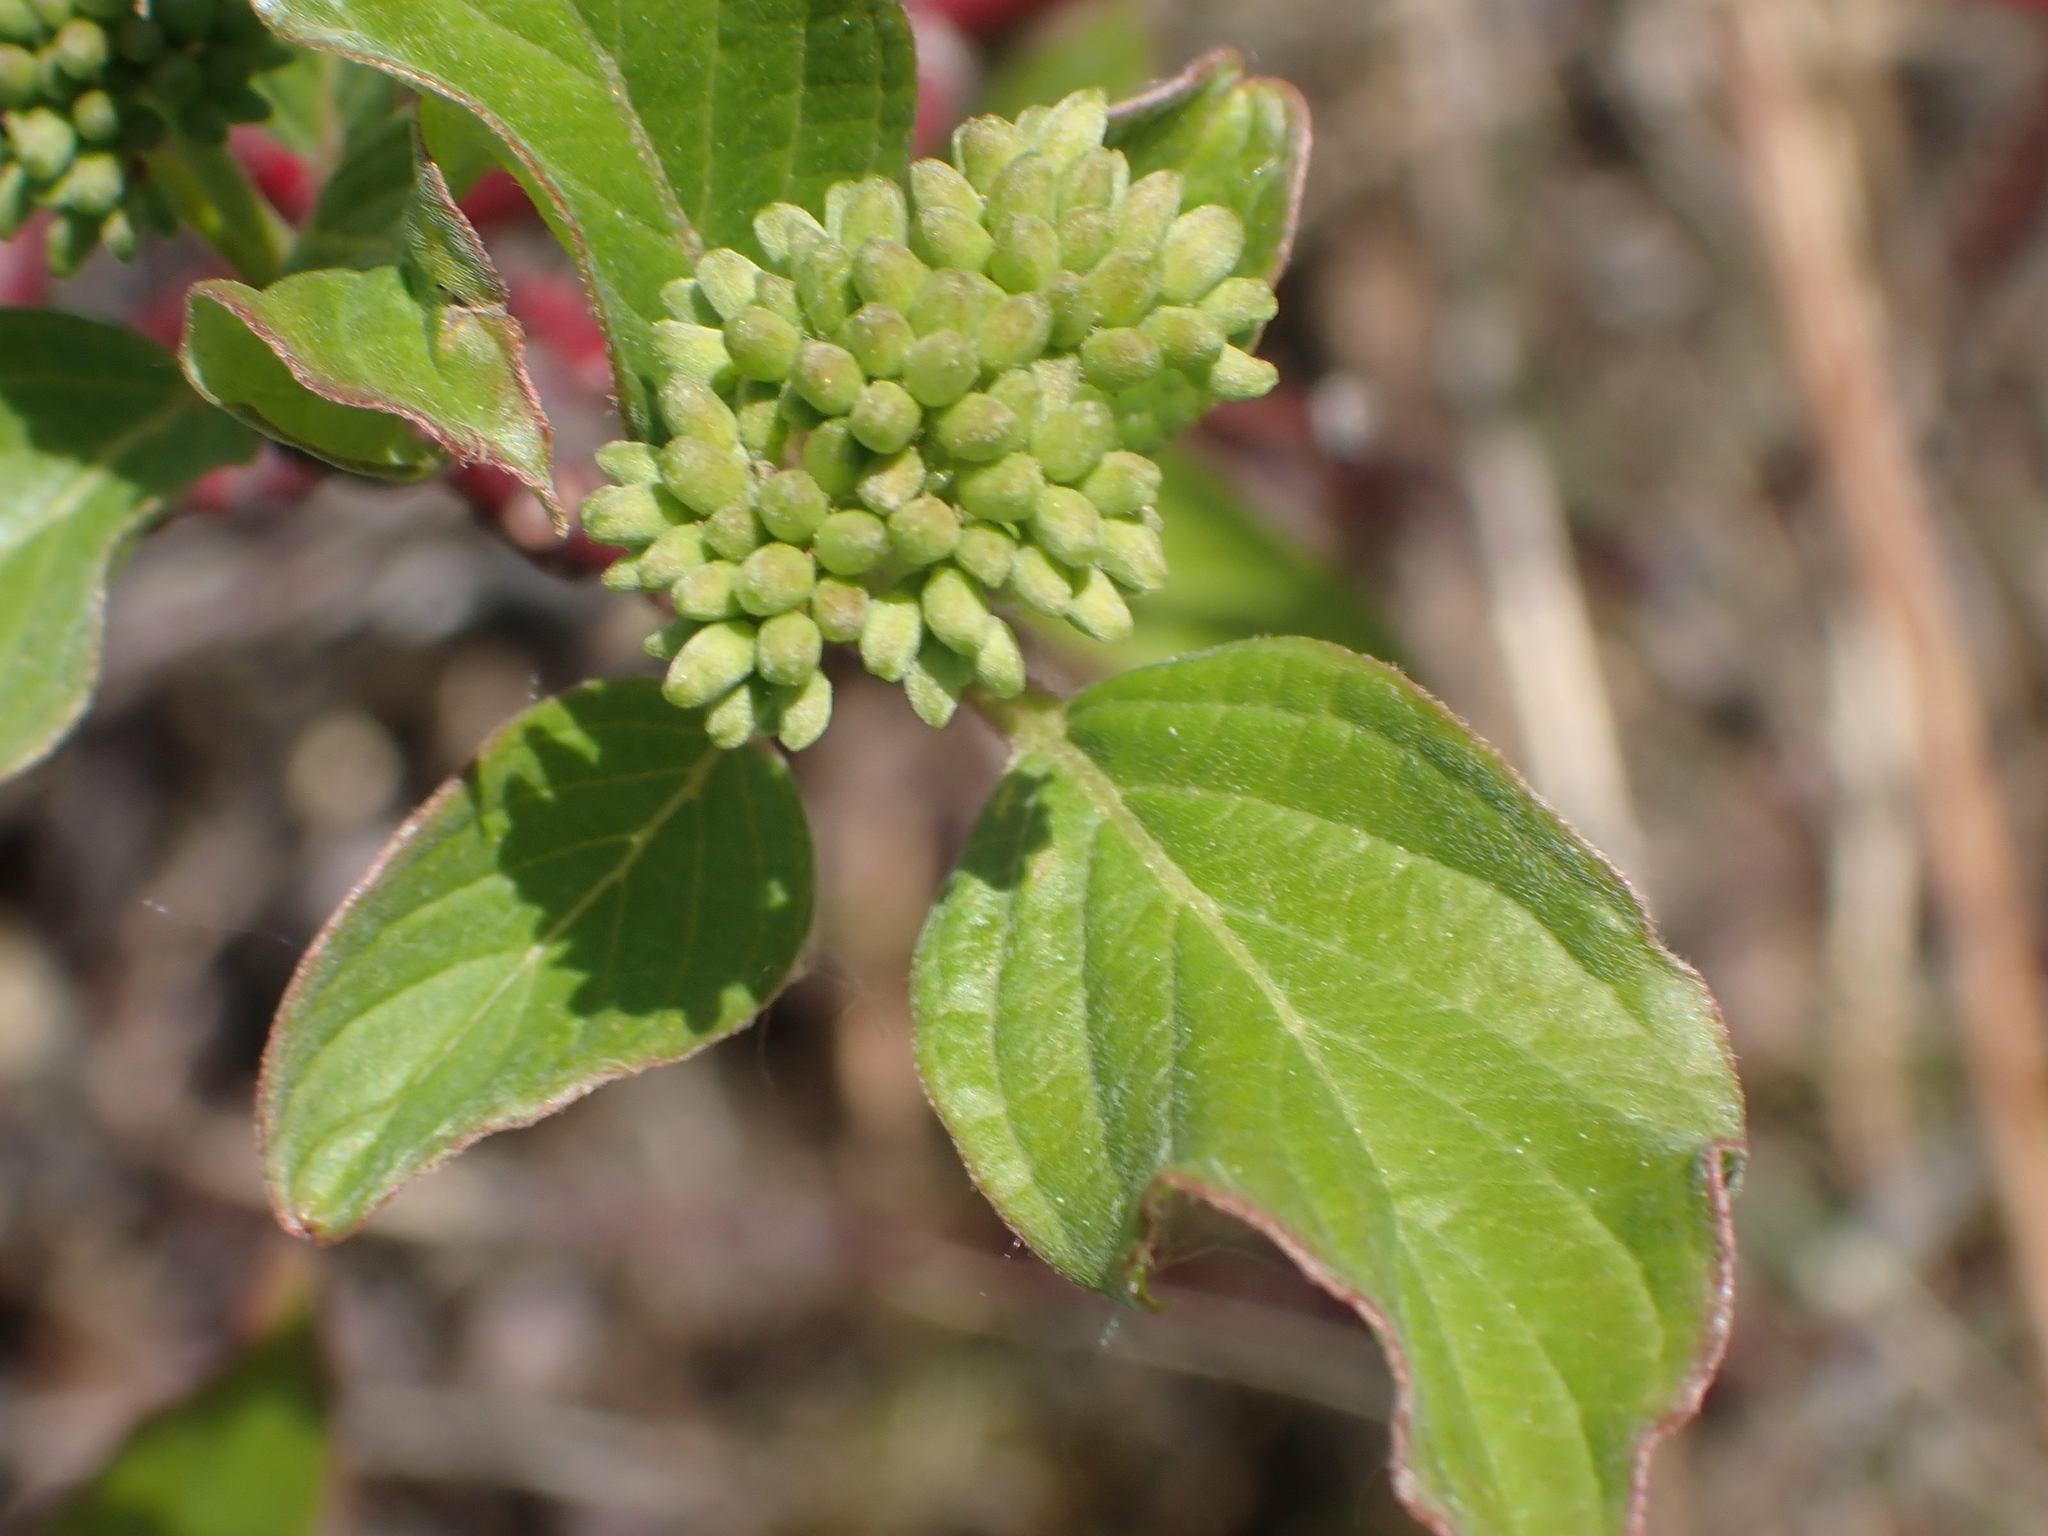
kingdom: Plantae
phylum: Tracheophyta
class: Magnoliopsida
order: Cornales
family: Cornaceae
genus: Cornus
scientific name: Cornus sericea
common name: Red-osier dogwood
